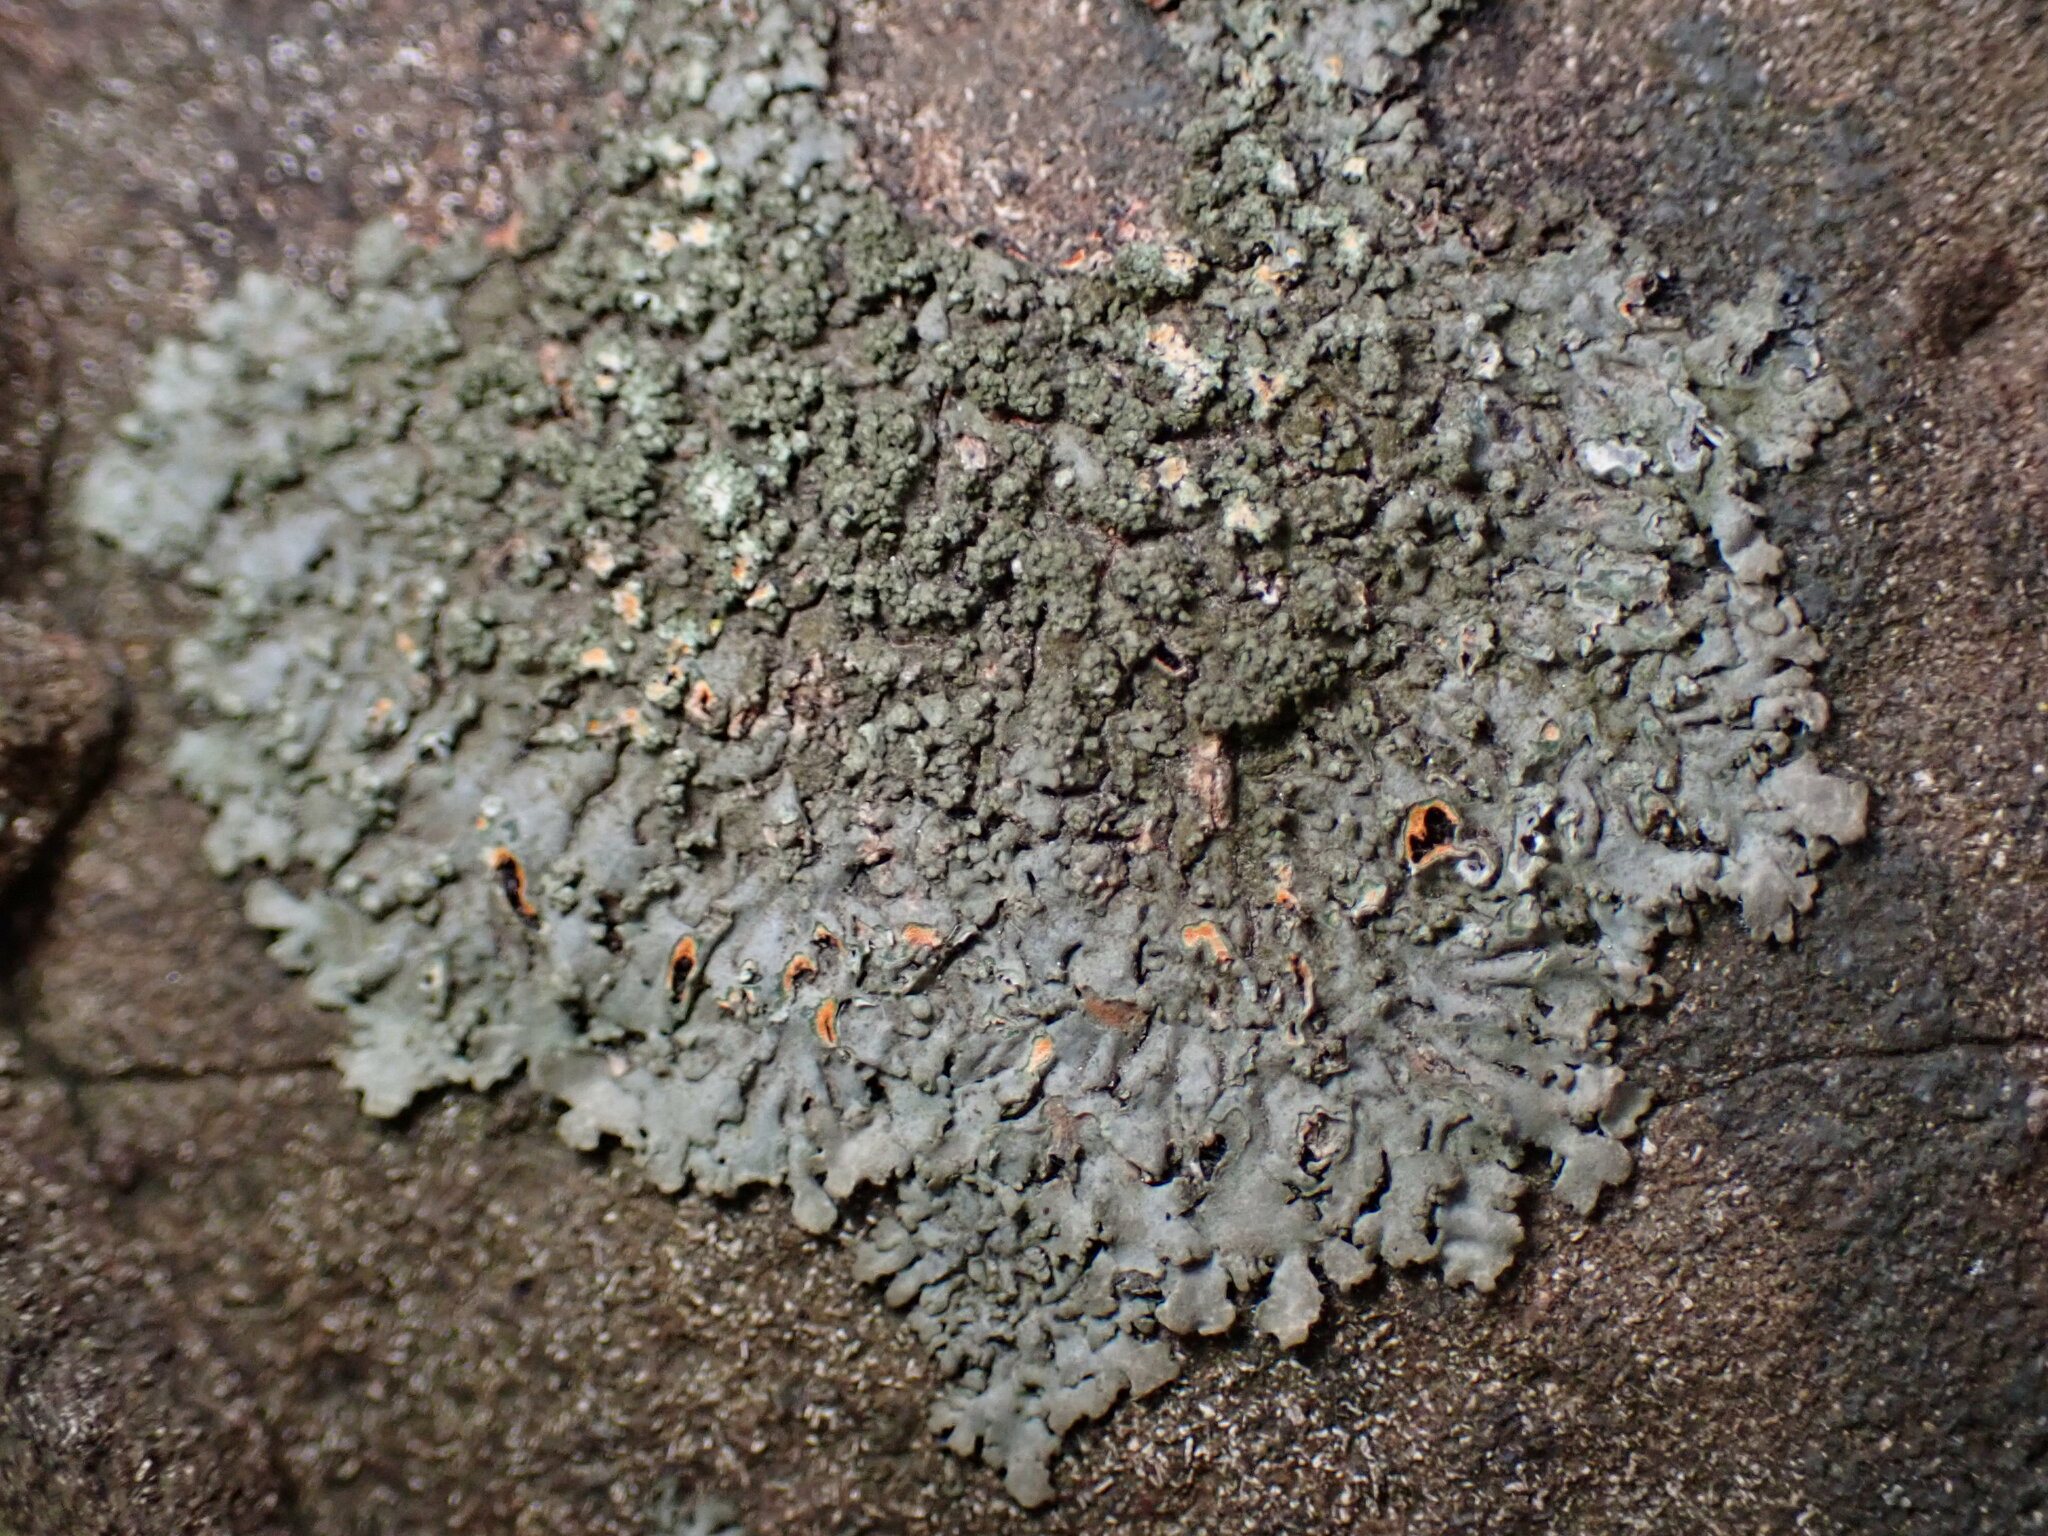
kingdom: Fungi
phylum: Ascomycota
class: Lecanoromycetes
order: Caliciales
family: Physciaceae
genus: Phaeophyscia
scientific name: Phaeophyscia rubropulchra
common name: Orange-cored shadow lichen
